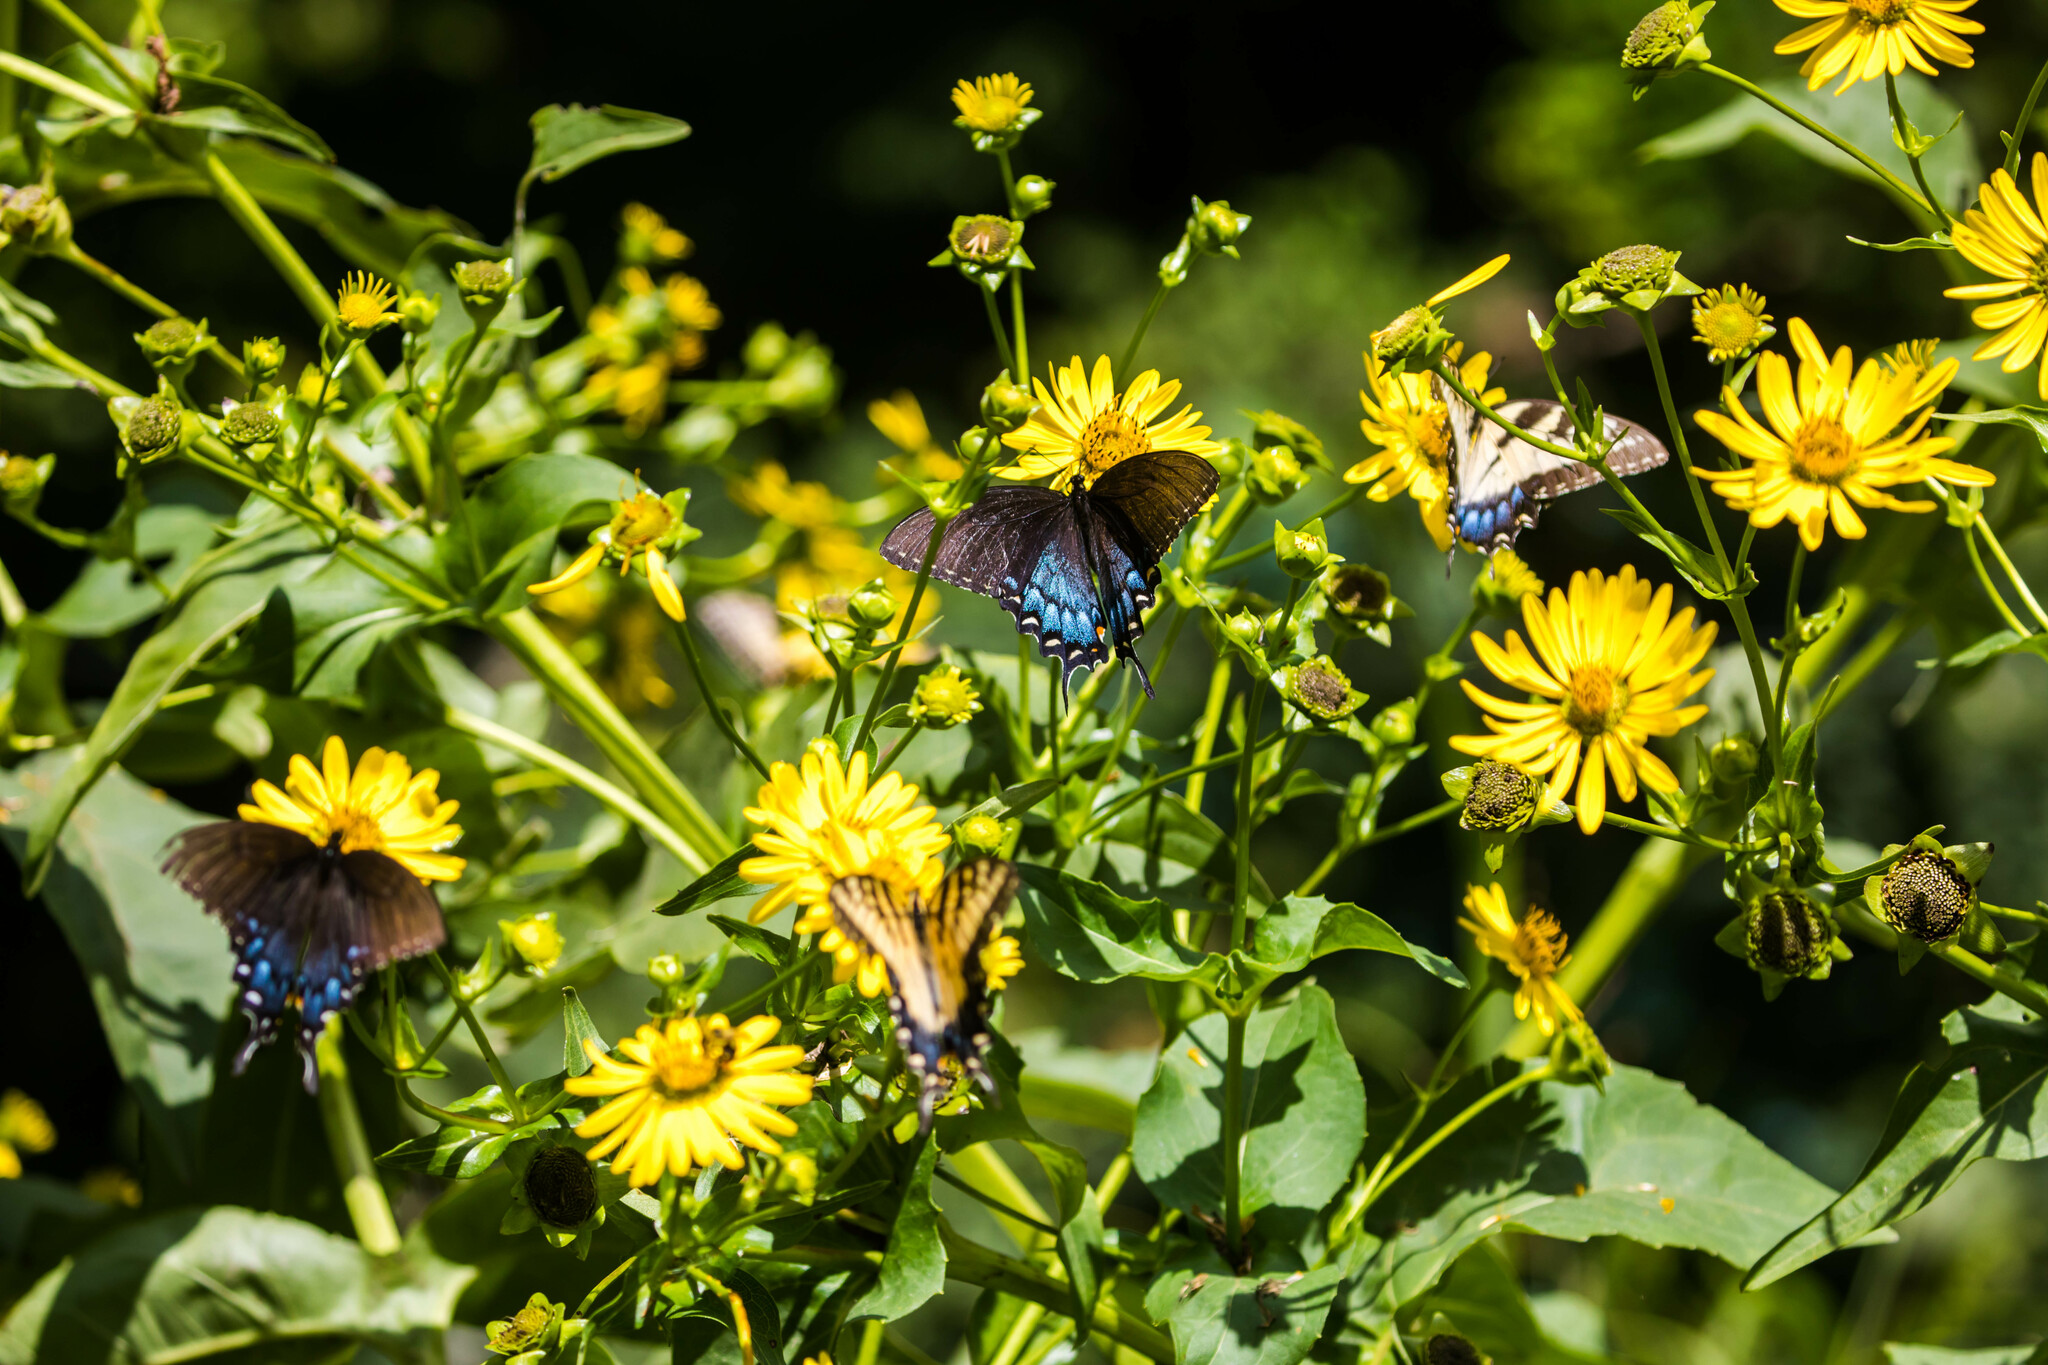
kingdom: Animalia
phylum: Arthropoda
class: Insecta
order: Lepidoptera
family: Papilionidae
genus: Papilio
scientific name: Papilio glaucus
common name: Tiger swallowtail
